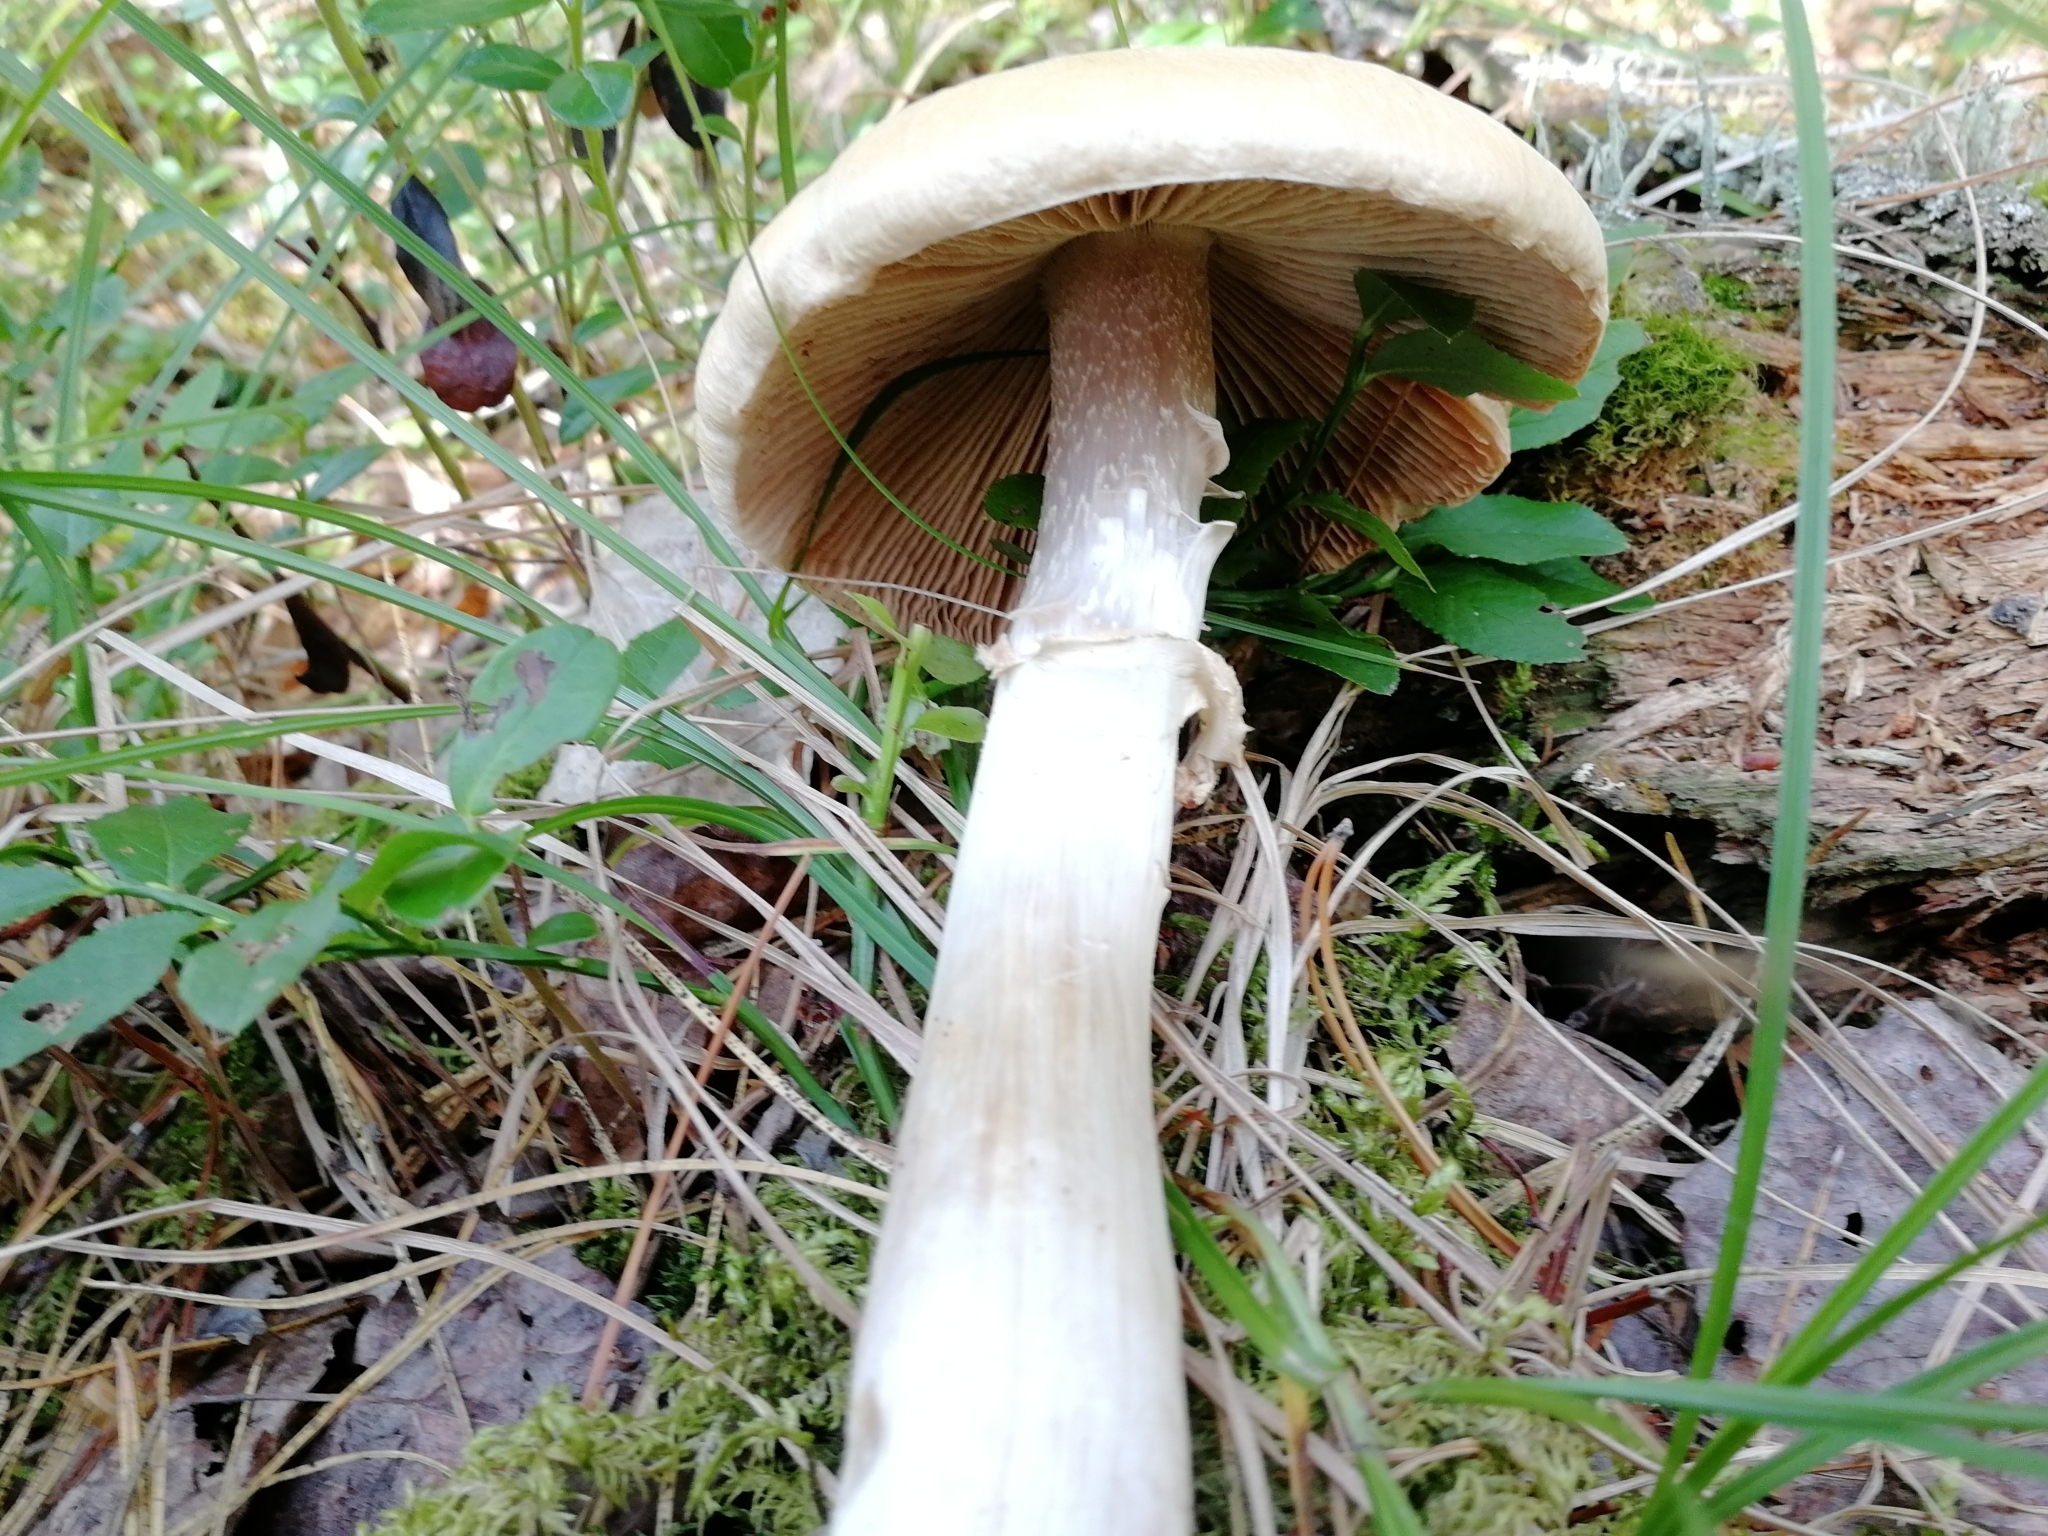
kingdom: Fungi
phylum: Basidiomycota
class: Agaricomycetes
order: Agaricales
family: Cortinariaceae
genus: Cortinarius
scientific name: Cortinarius caperatus
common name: The gypsy
